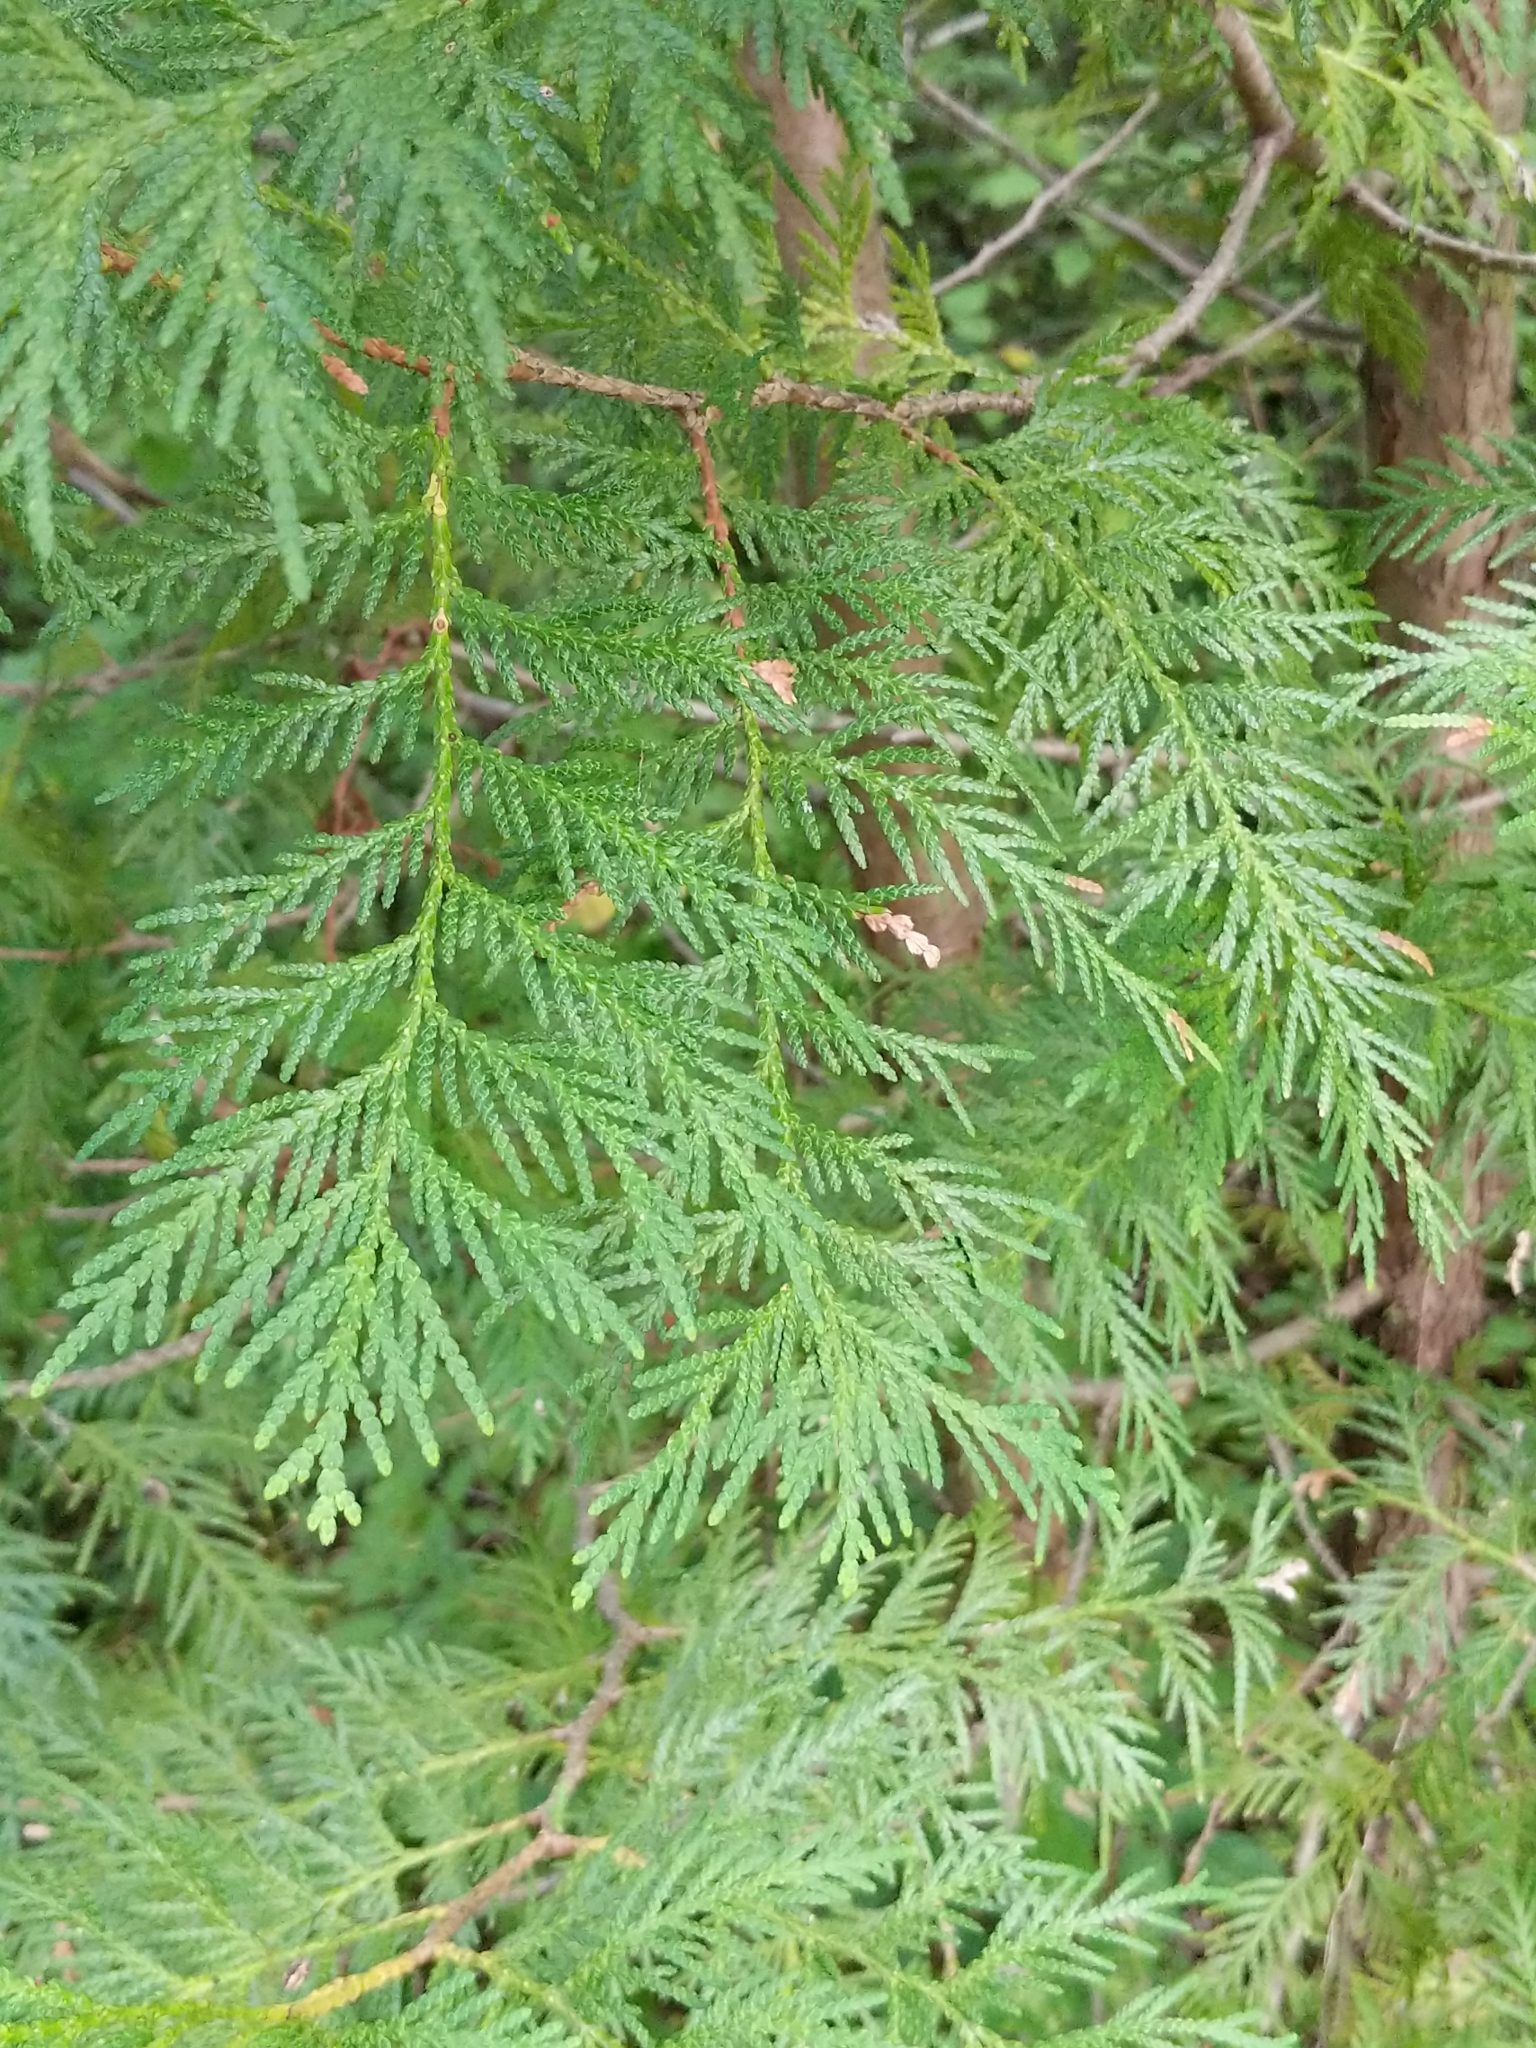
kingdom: Plantae
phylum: Tracheophyta
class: Pinopsida
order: Pinales
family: Cupressaceae
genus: Thuja
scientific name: Thuja occidentalis
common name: Northern white-cedar
